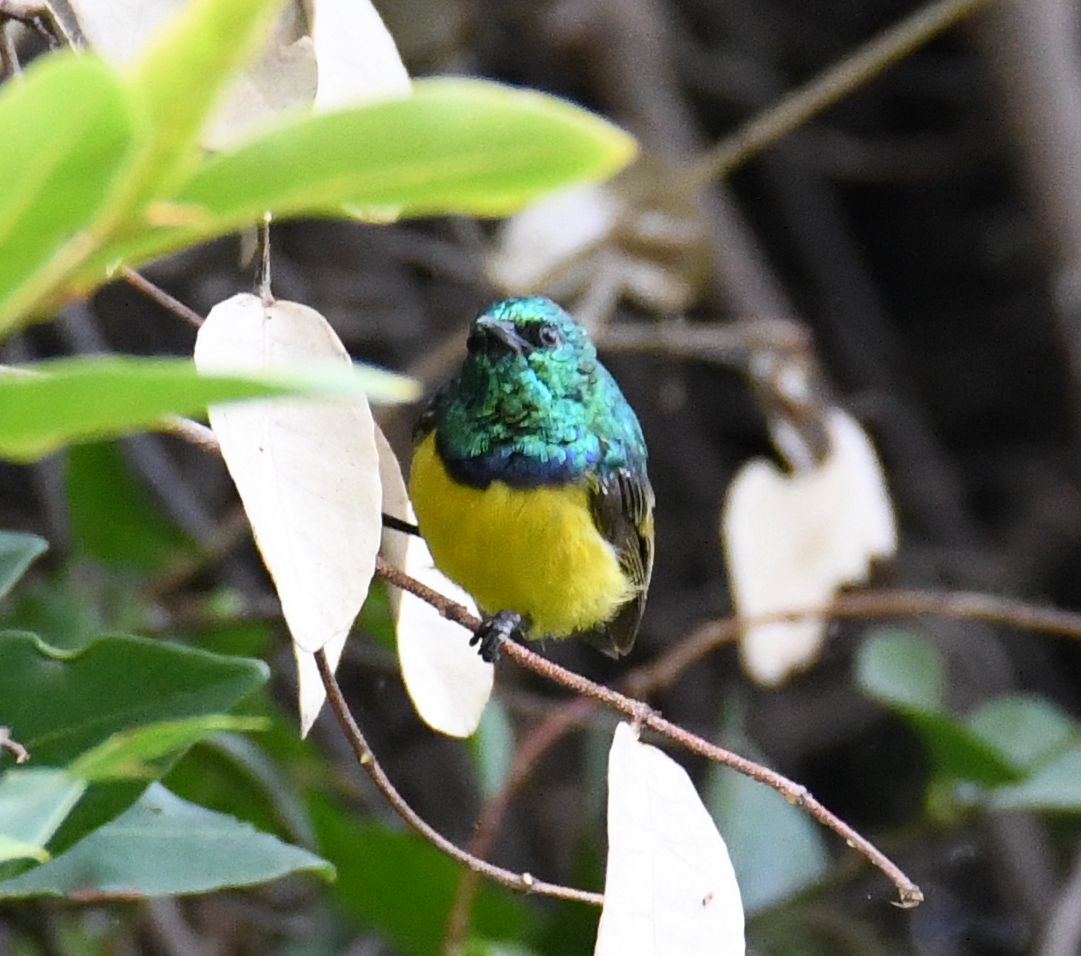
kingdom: Animalia
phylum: Chordata
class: Aves
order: Passeriformes
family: Nectariniidae
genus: Hedydipna
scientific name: Hedydipna collaris
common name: Collared sunbird
